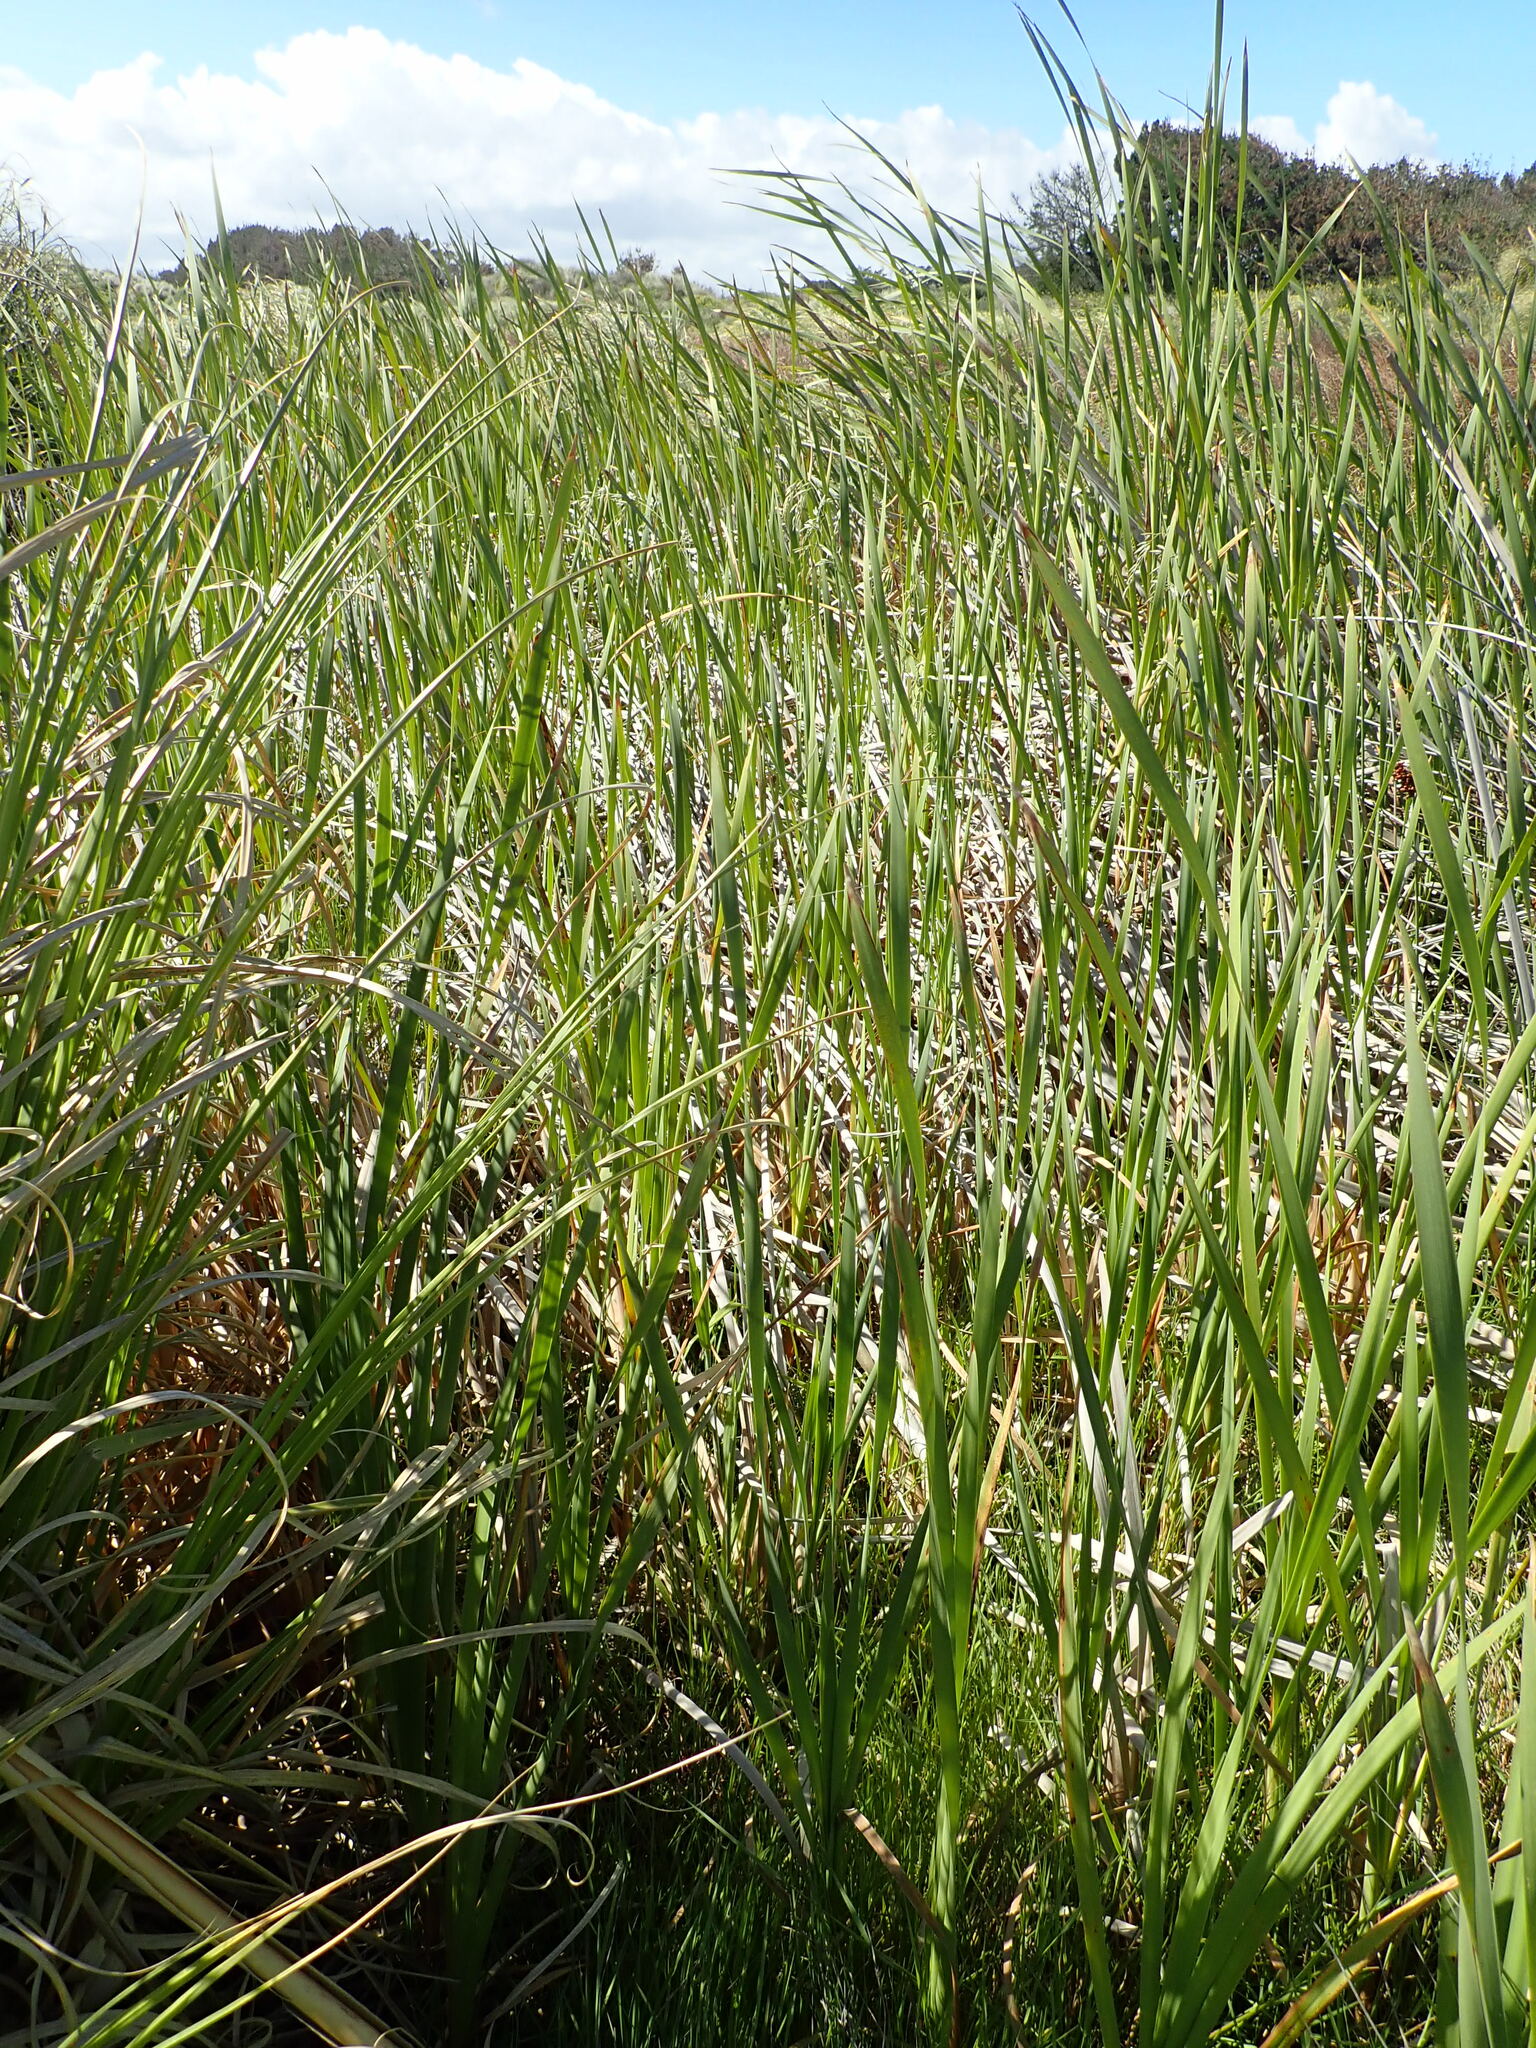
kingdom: Plantae
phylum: Tracheophyta
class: Liliopsida
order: Poales
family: Typhaceae
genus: Typha
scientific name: Typha orientalis
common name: Bullrush
